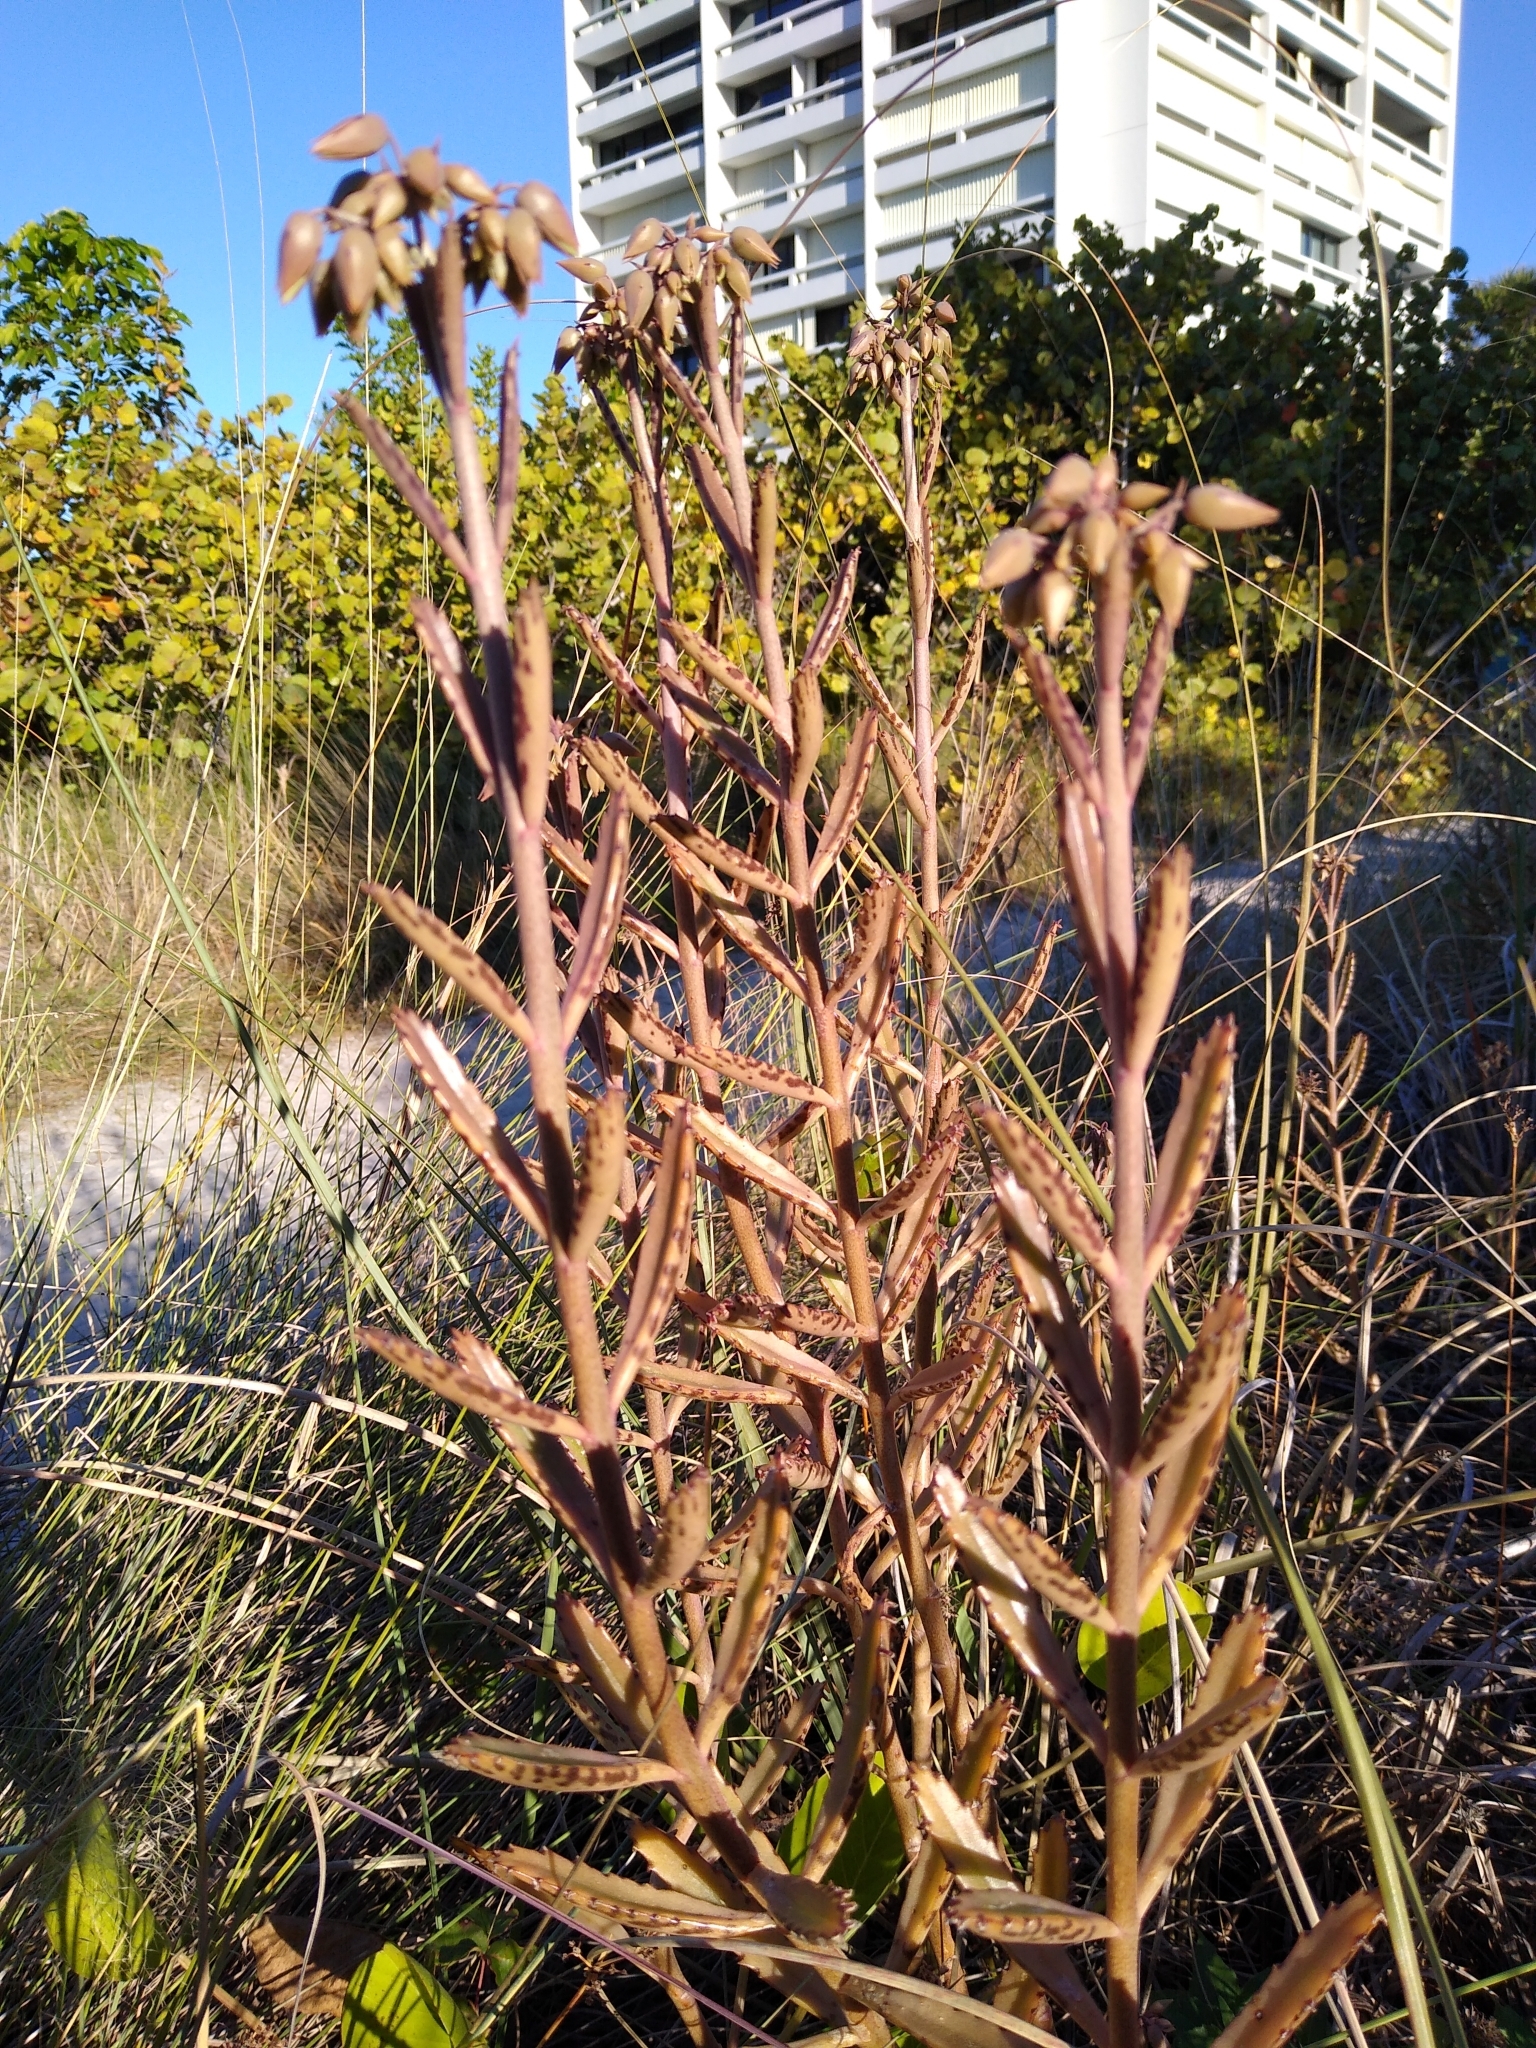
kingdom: Plantae
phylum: Tracheophyta
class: Magnoliopsida
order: Saxifragales
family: Crassulaceae
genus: Kalanchoe
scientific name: Kalanchoe houghtonii
